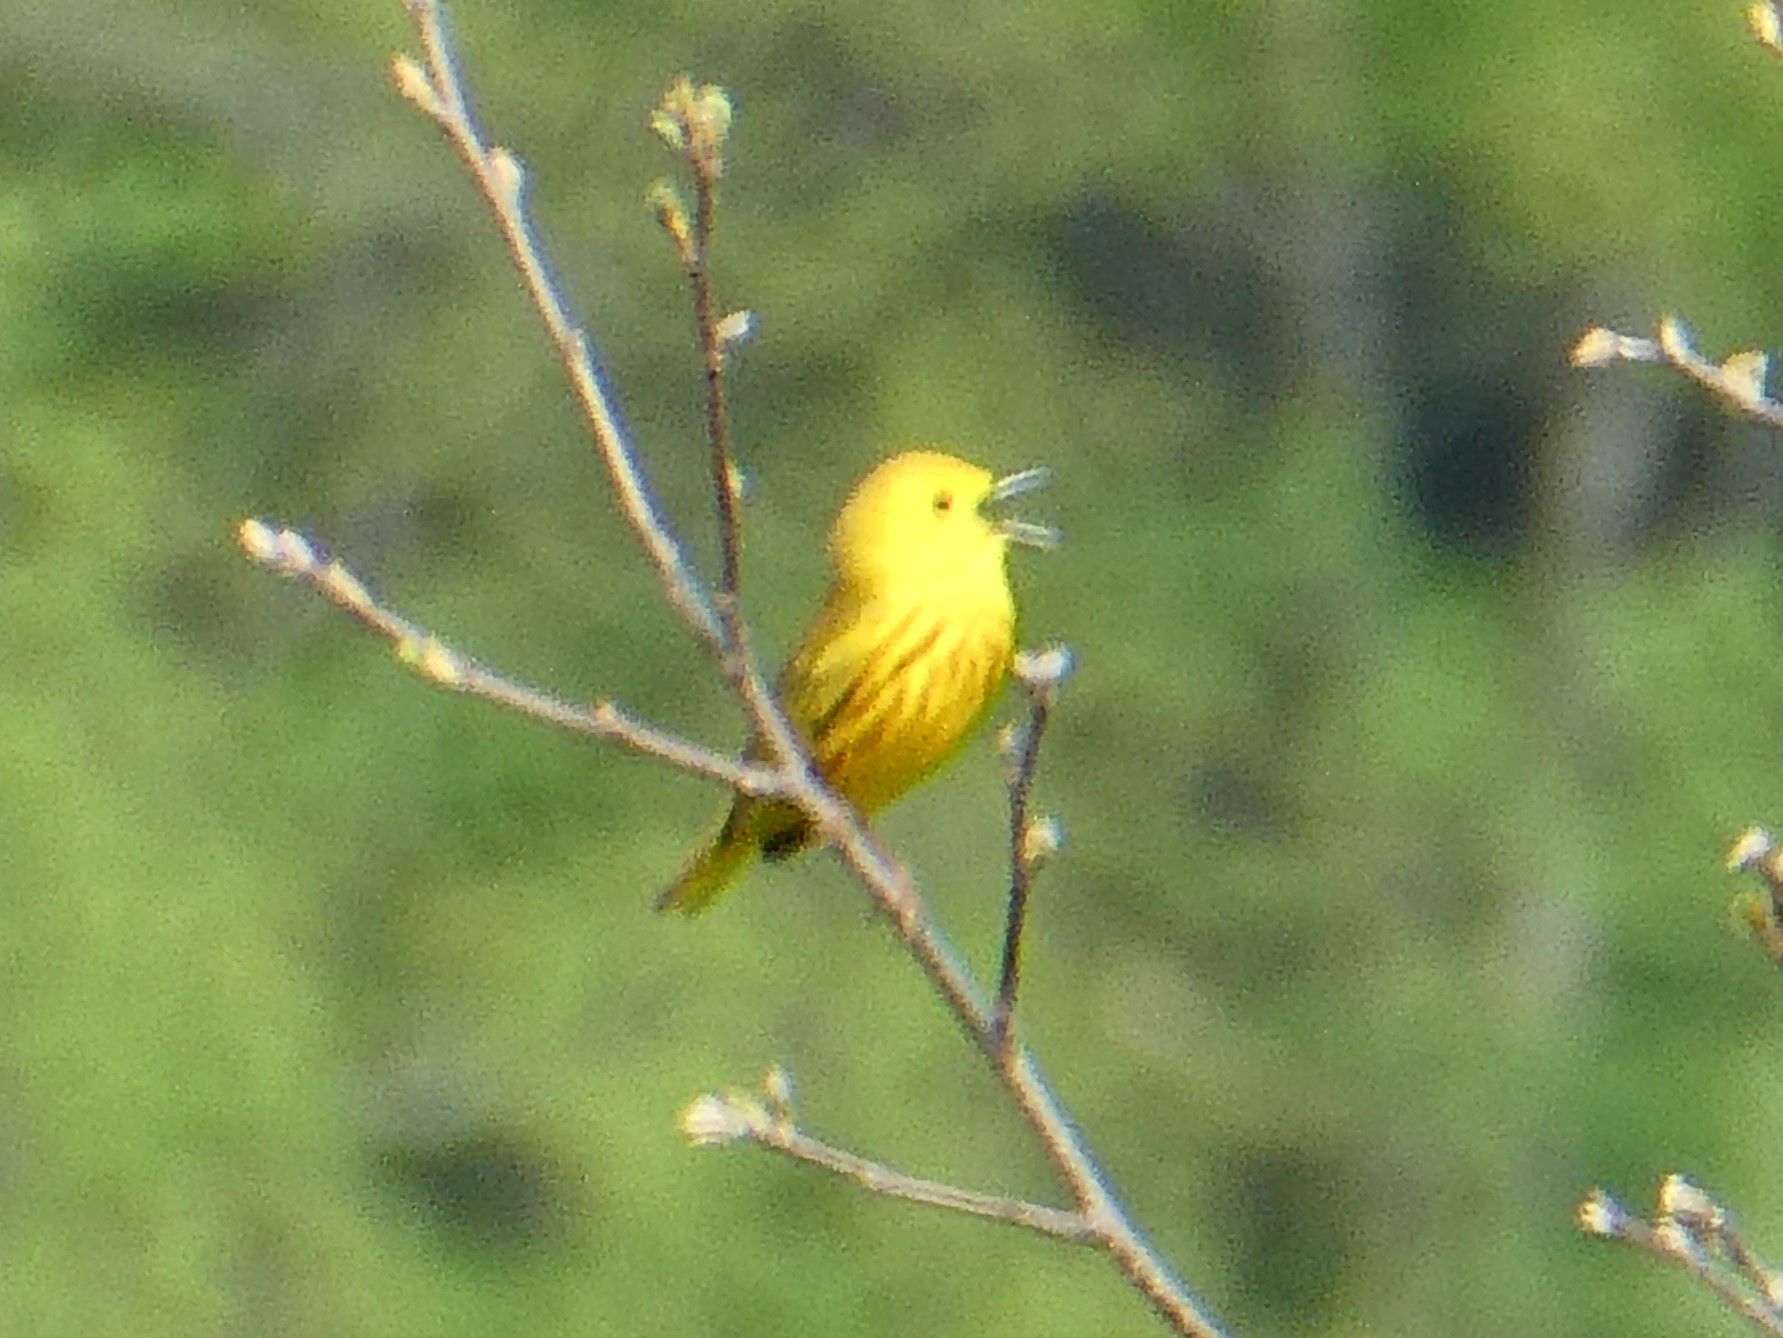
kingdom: Animalia
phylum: Chordata
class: Aves
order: Passeriformes
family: Parulidae
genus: Setophaga
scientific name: Setophaga petechia
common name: Yellow warbler
